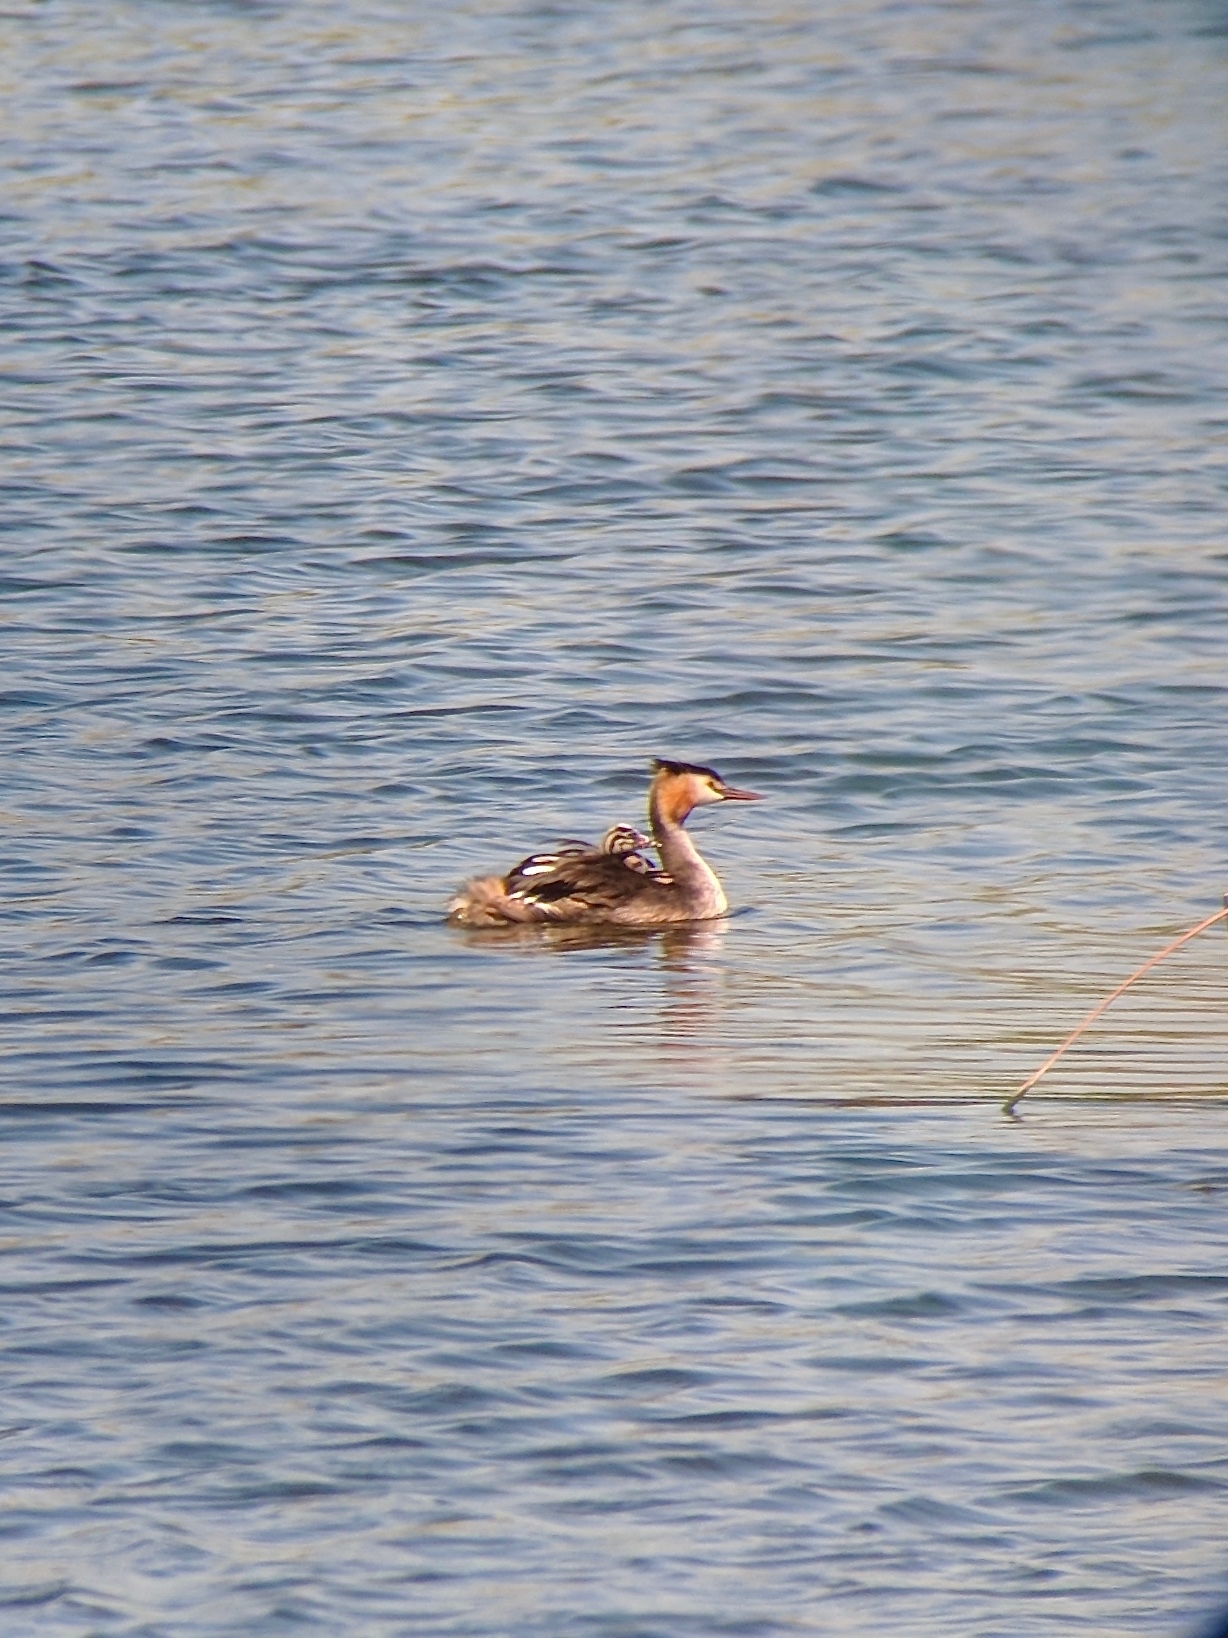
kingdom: Animalia
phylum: Chordata
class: Aves
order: Podicipediformes
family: Podicipedidae
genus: Podiceps
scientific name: Podiceps cristatus
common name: Great crested grebe
